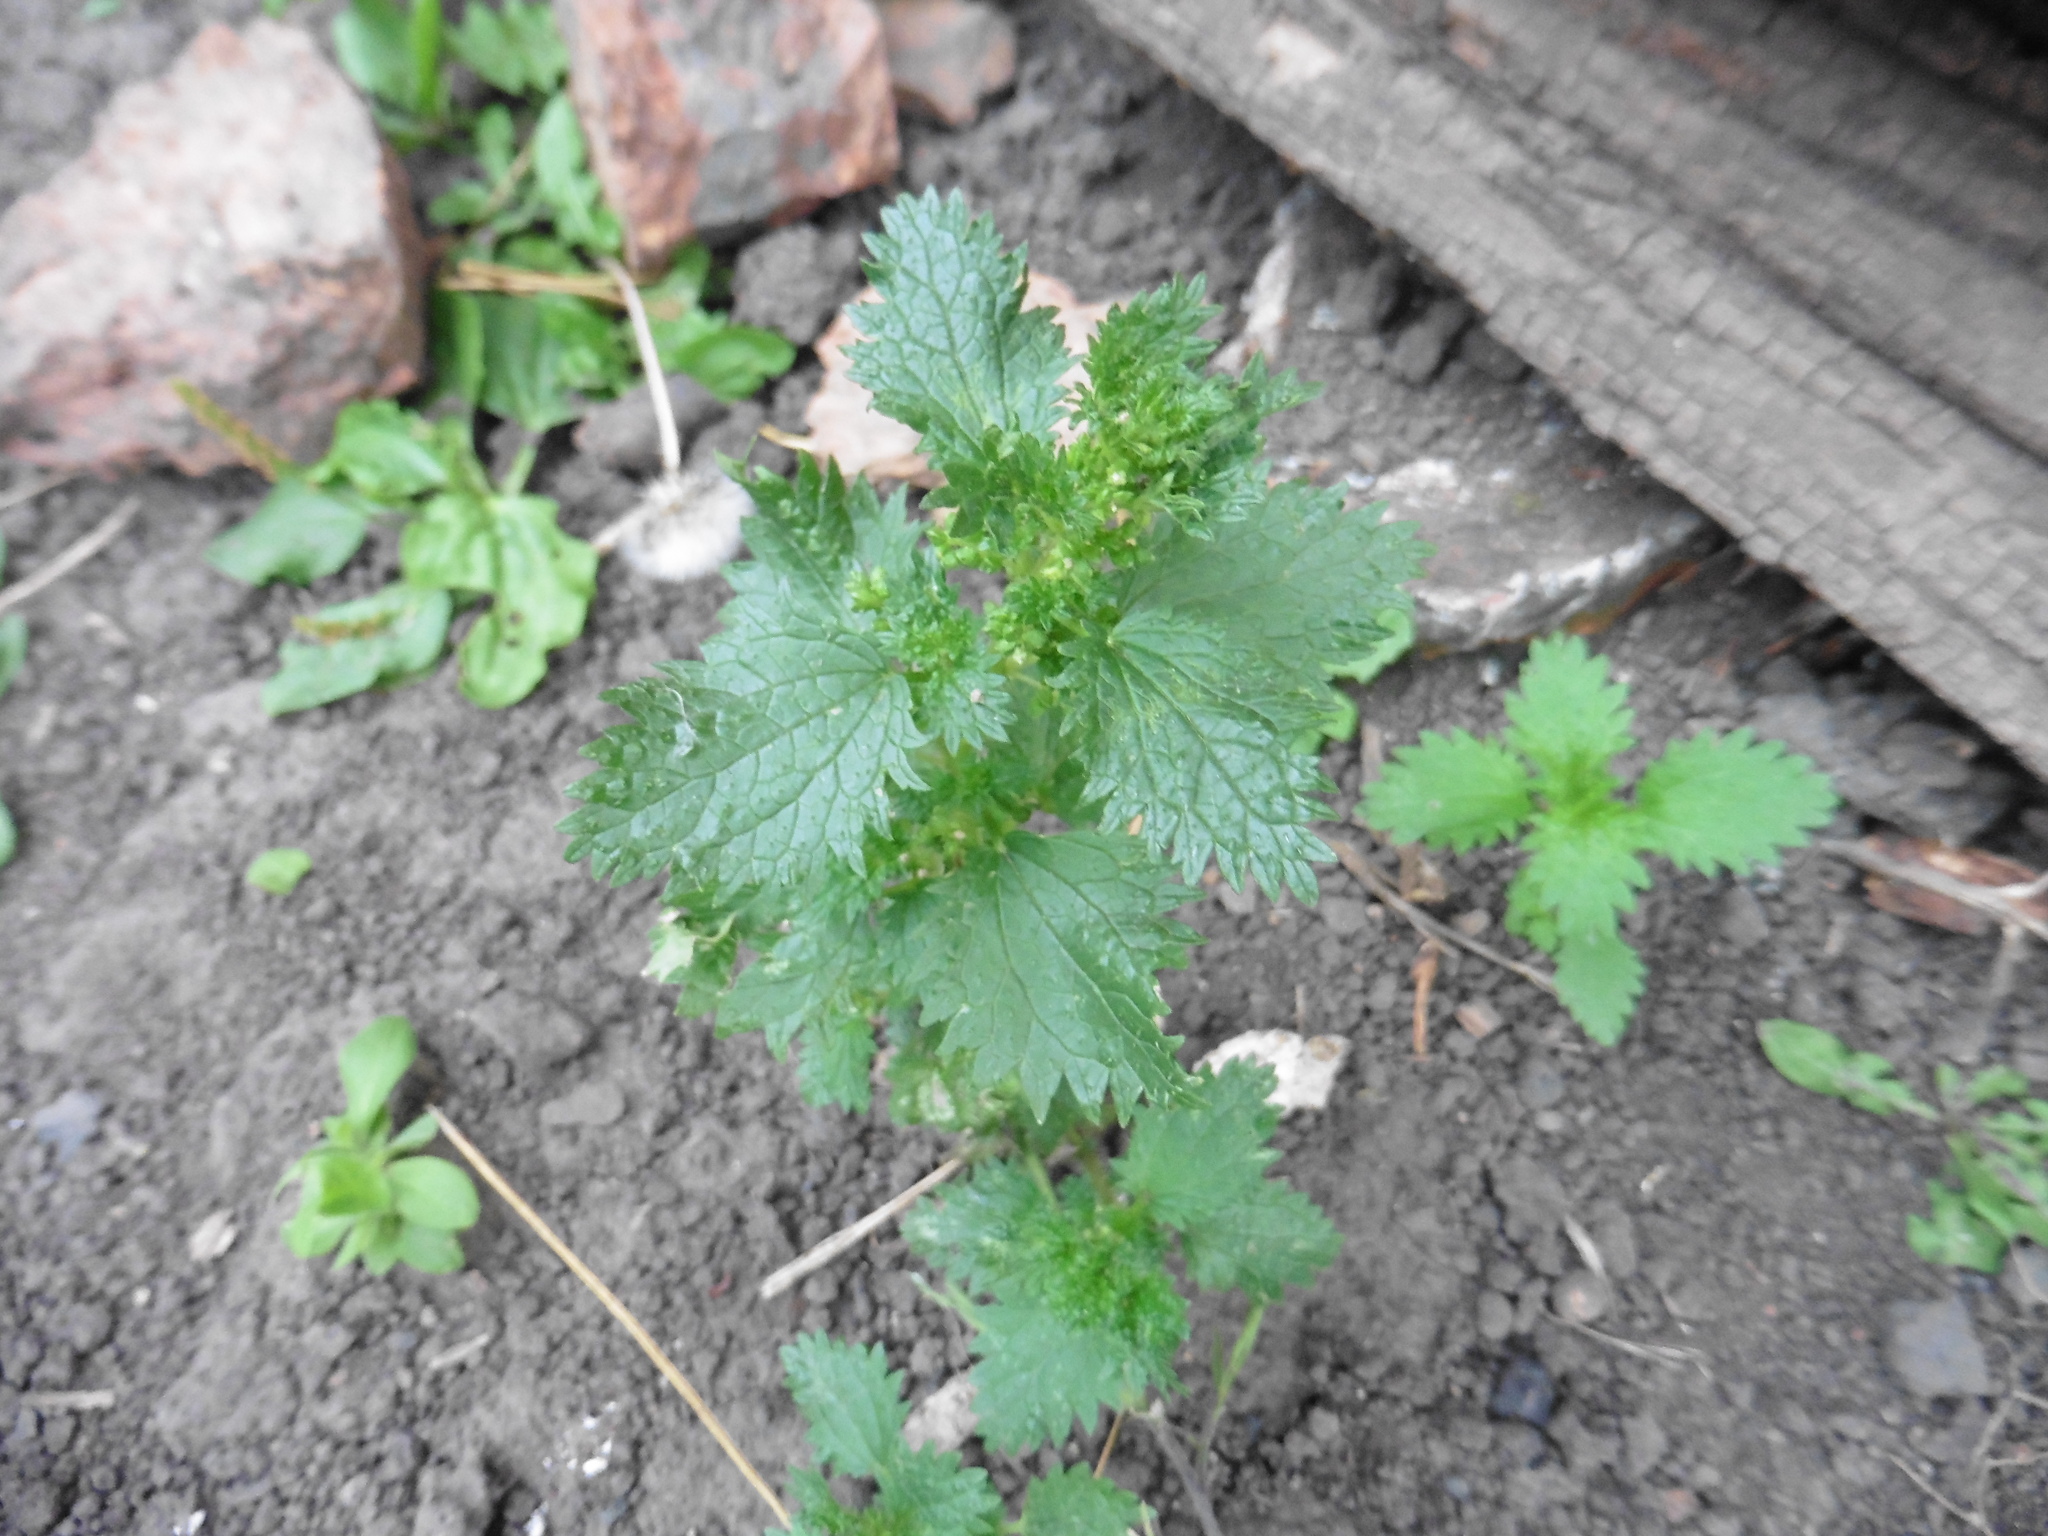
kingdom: Plantae
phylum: Tracheophyta
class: Magnoliopsida
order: Rosales
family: Urticaceae
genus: Urtica
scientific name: Urtica urens
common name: Dwarf nettle
